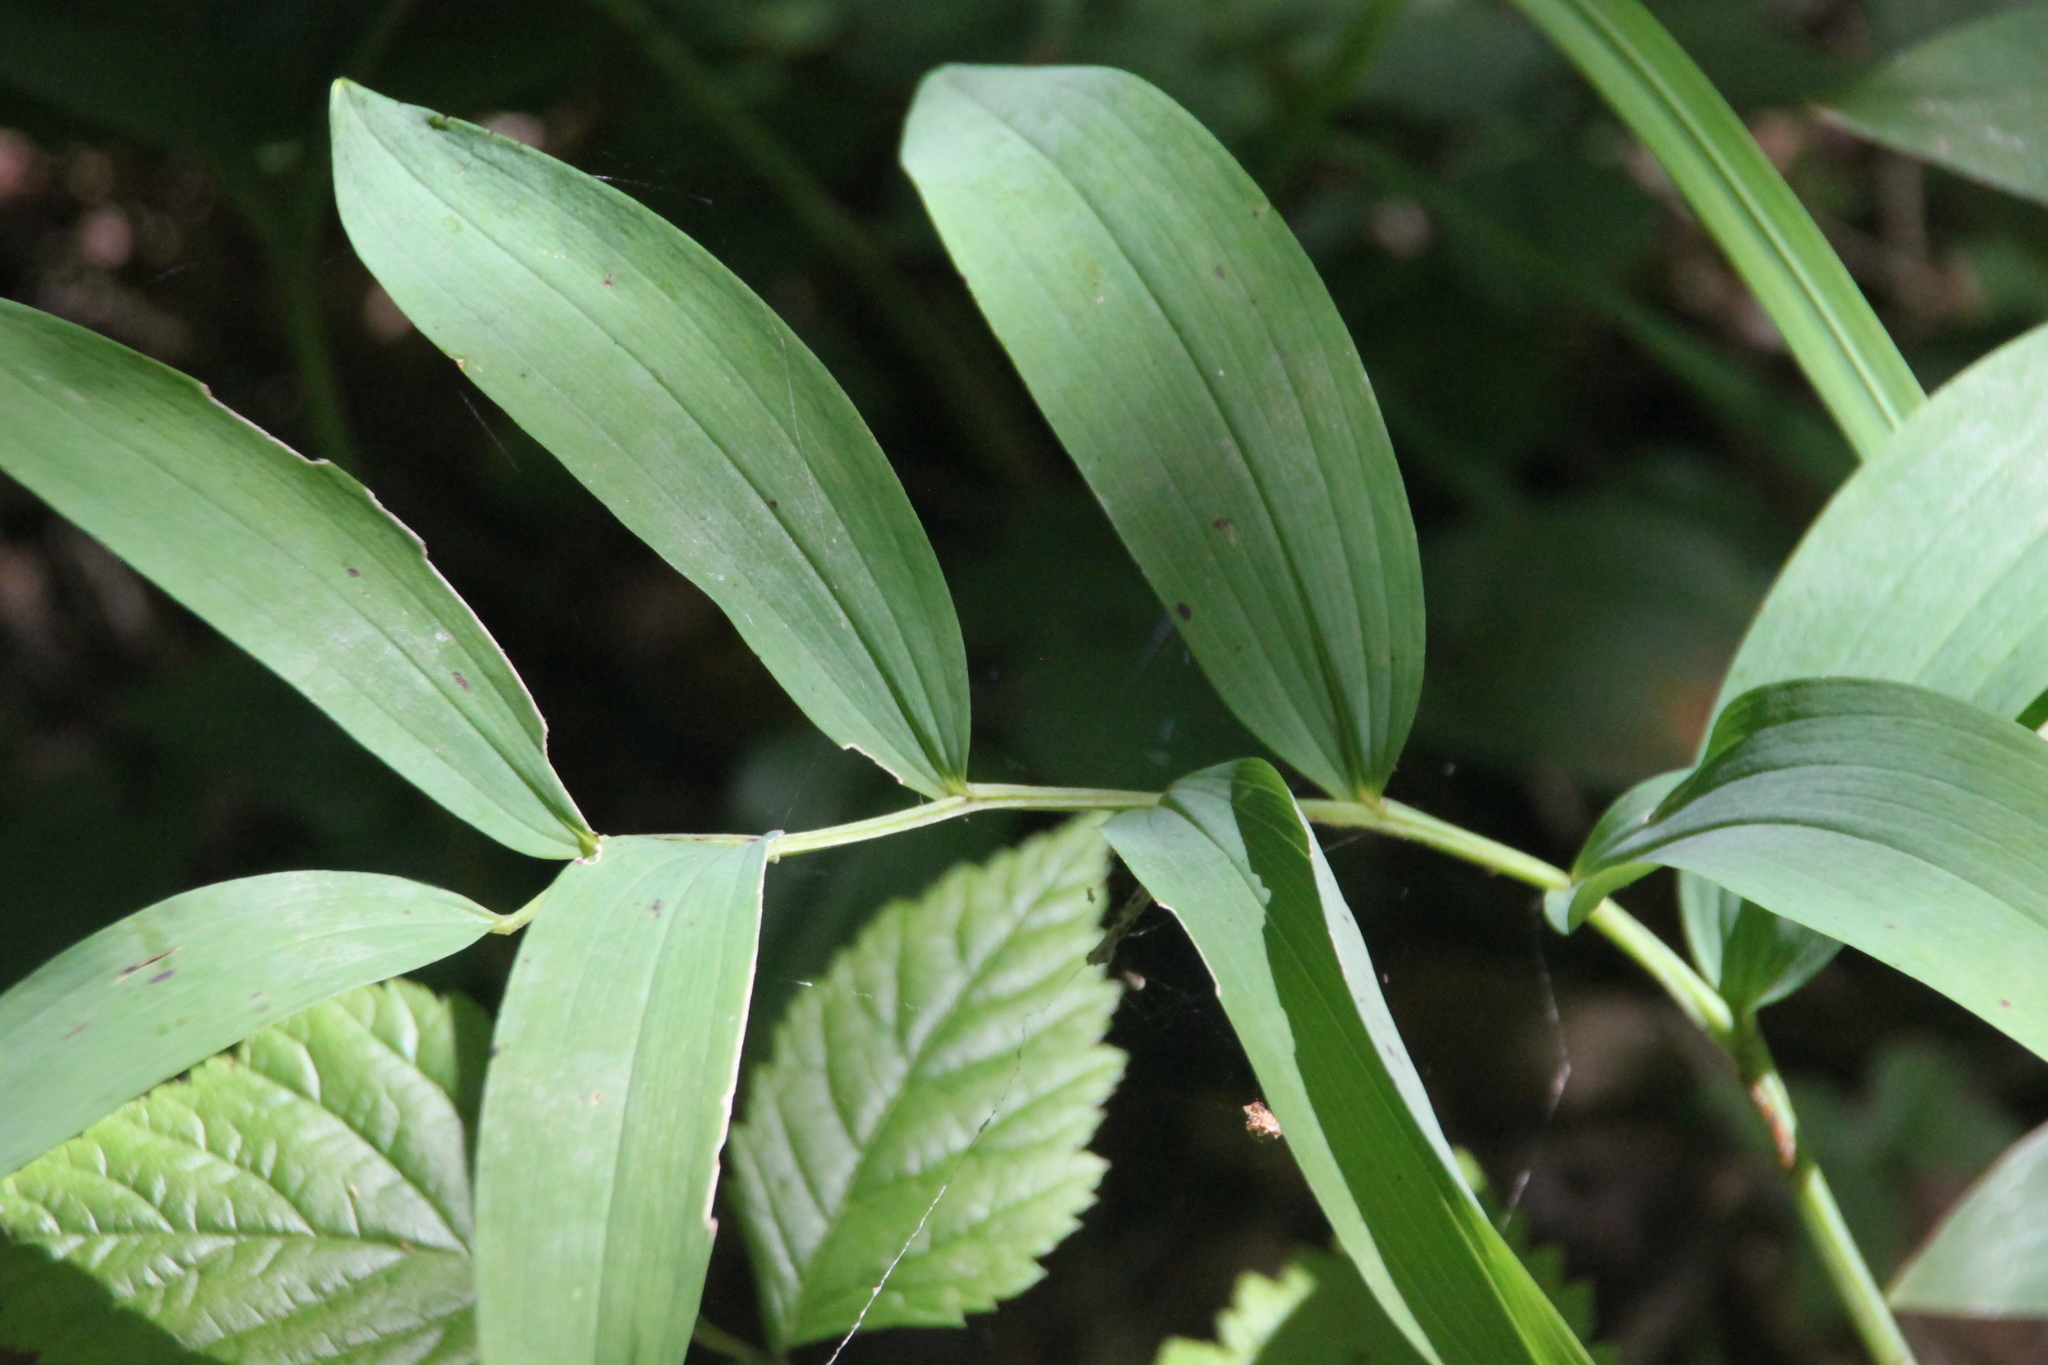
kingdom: Plantae
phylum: Tracheophyta
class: Liliopsida
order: Asparagales
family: Asparagaceae
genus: Polygonatum
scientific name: Polygonatum odoratum
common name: Angular solomon's-seal
